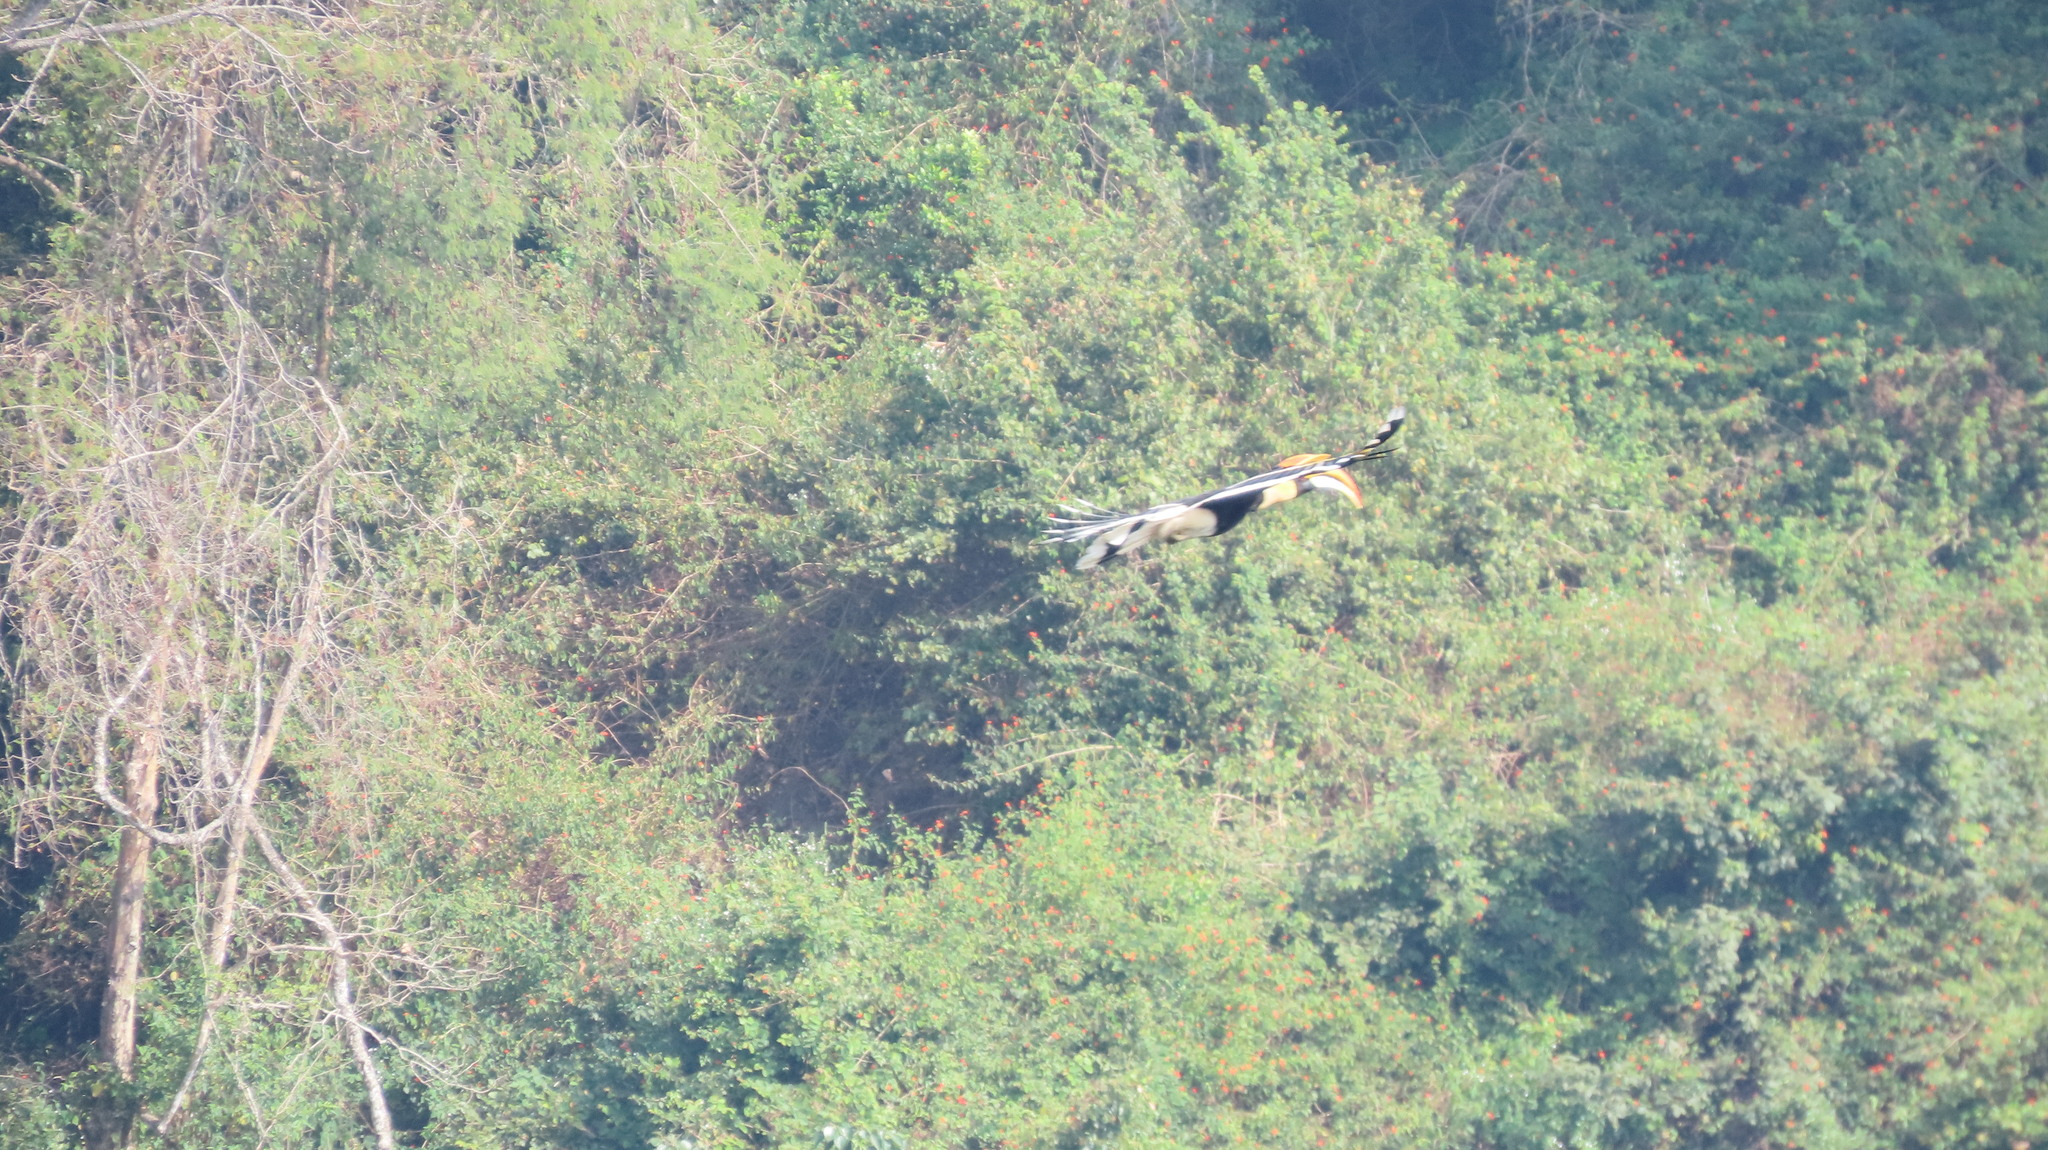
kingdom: Animalia
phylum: Chordata
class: Aves
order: Bucerotiformes
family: Bucerotidae
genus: Buceros
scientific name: Buceros bicornis
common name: Great hornbill
